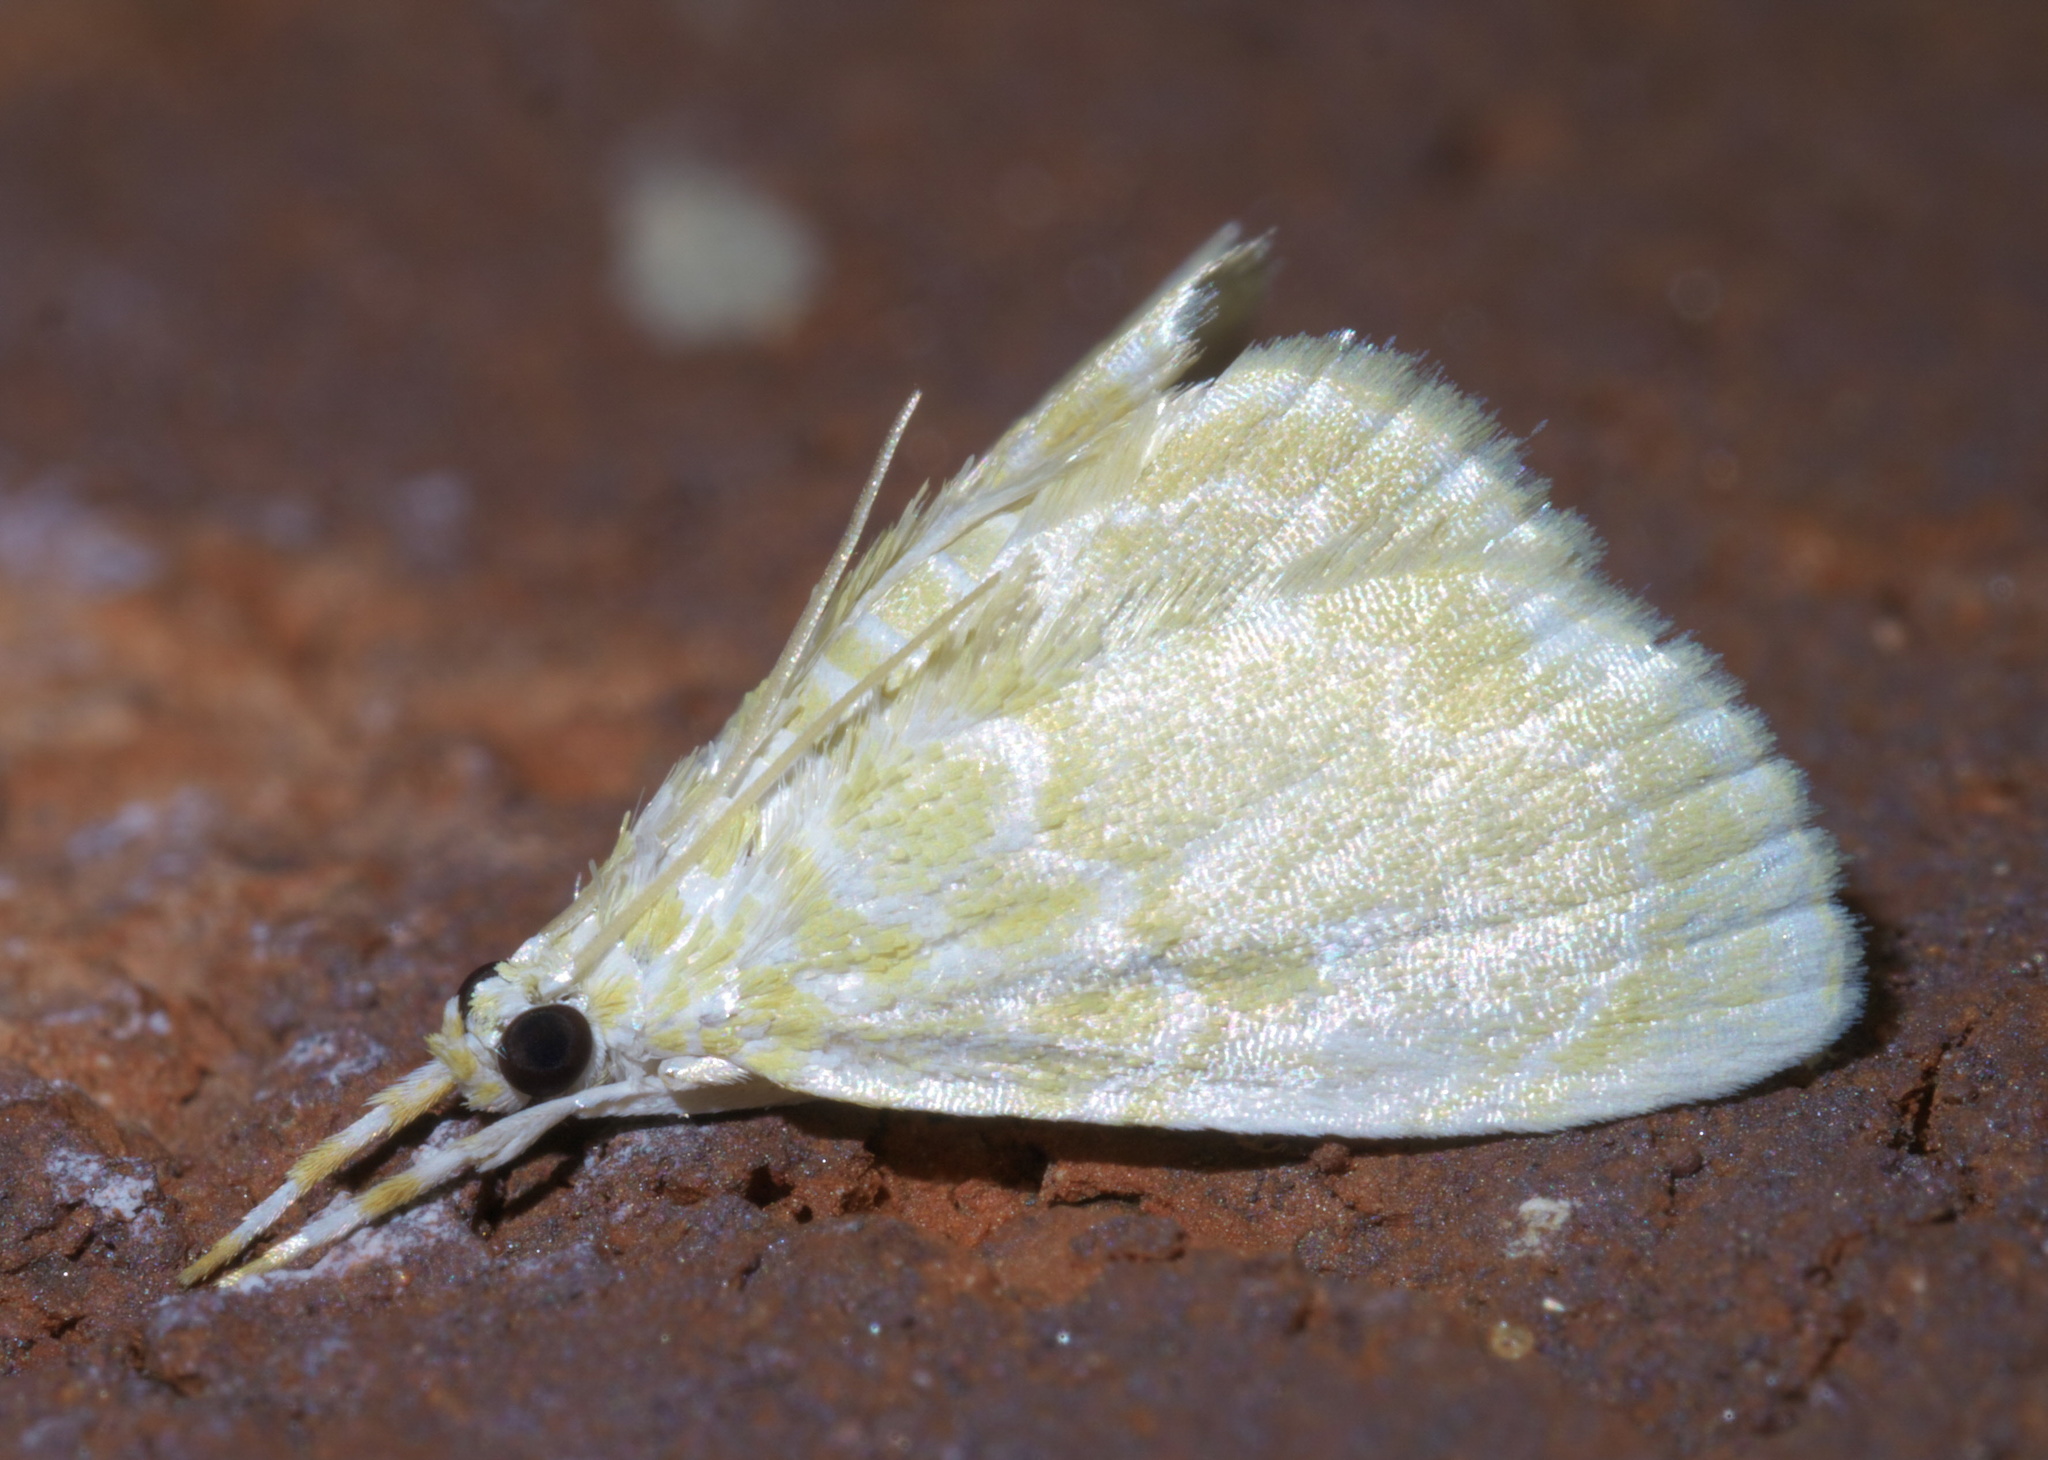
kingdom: Animalia
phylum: Arthropoda
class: Insecta
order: Lepidoptera
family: Crambidae
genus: Glaphyria
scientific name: Glaphyria glaphyralis
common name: Common glaphyria moth
